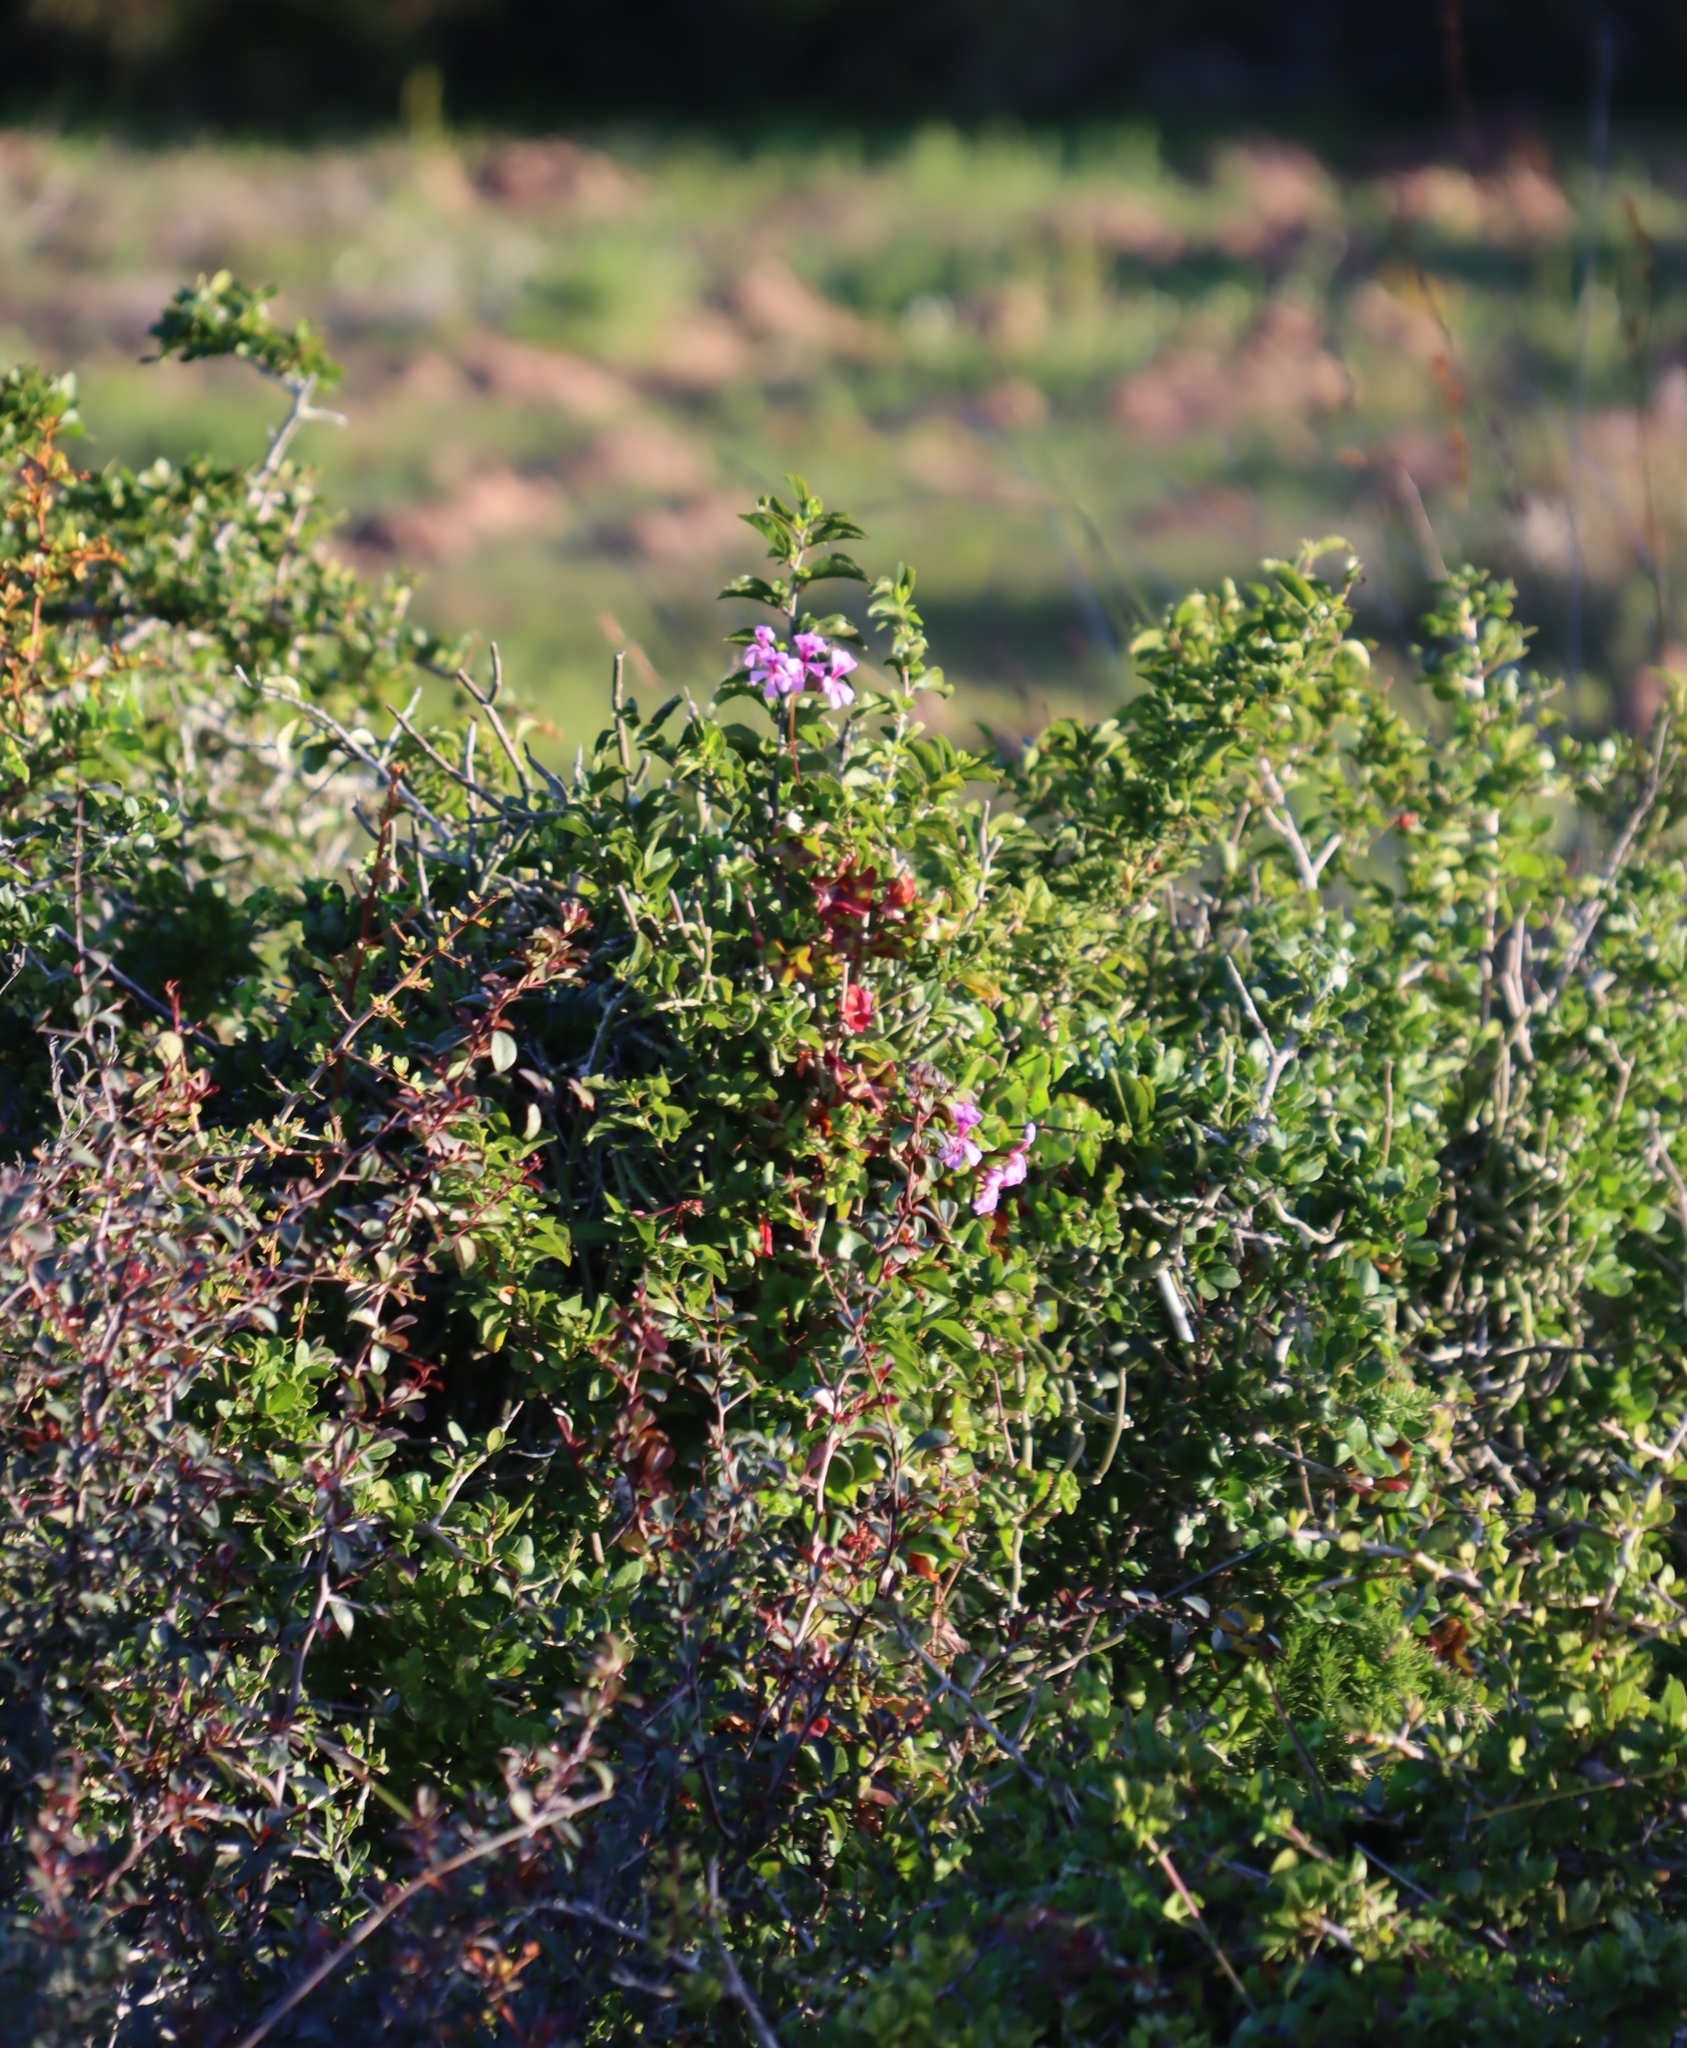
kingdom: Plantae
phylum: Tracheophyta
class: Magnoliopsida
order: Geraniales
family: Geraniaceae
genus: Pelargonium
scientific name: Pelargonium peltatum
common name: Ivyleaf geranium
